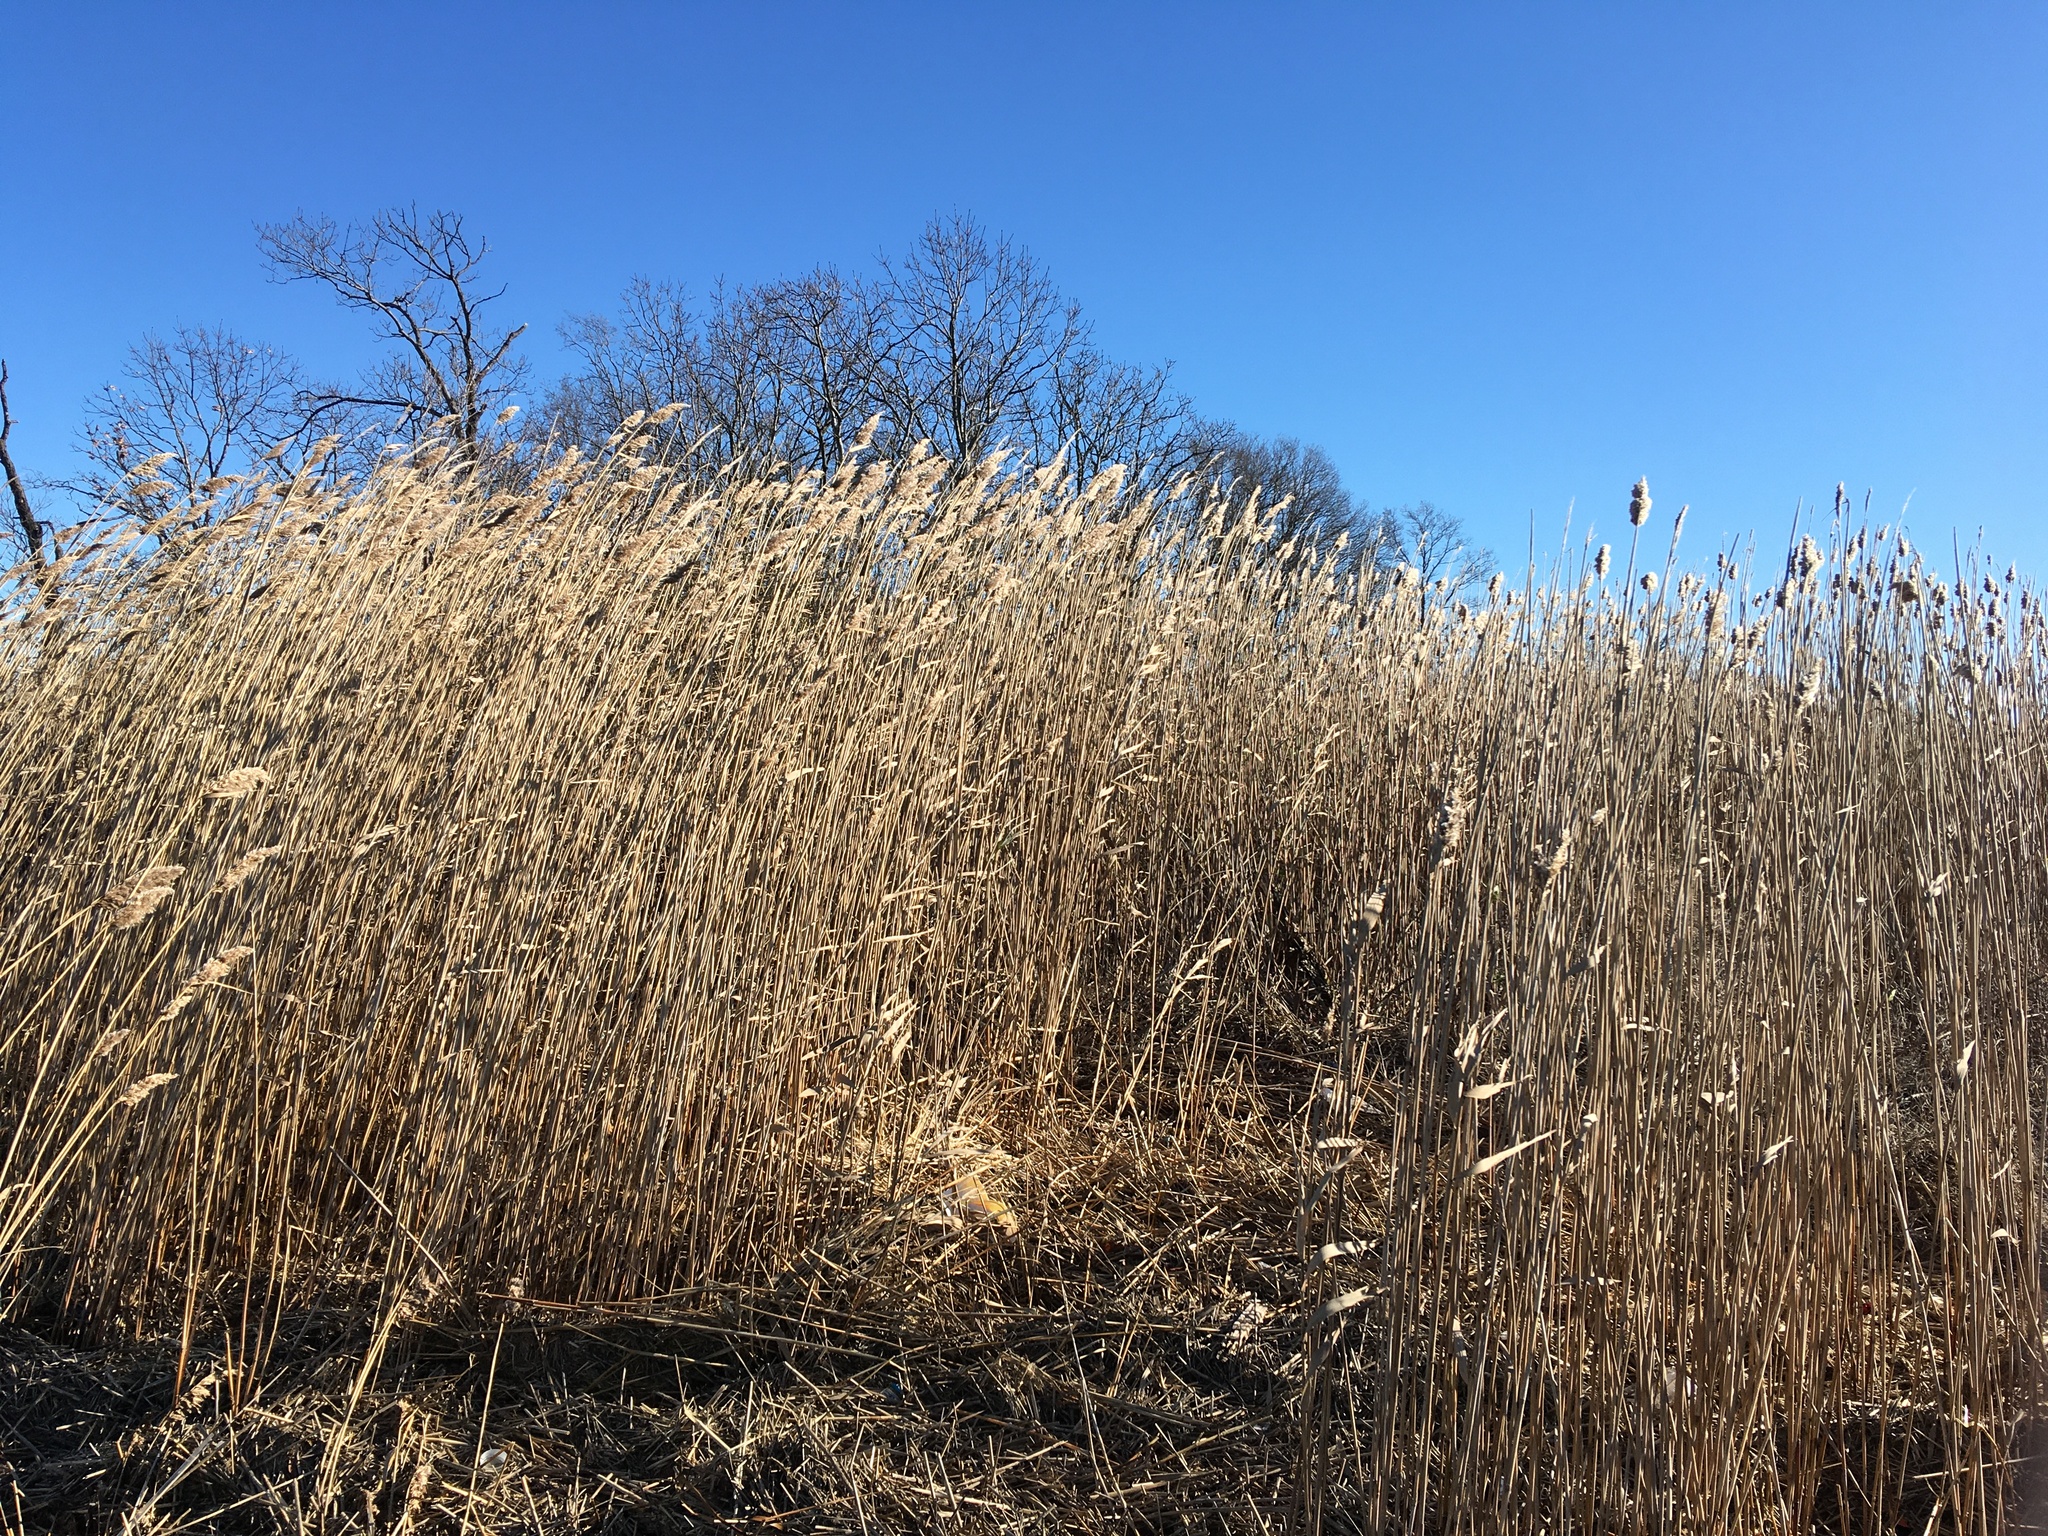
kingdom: Plantae
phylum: Tracheophyta
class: Liliopsida
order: Poales
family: Poaceae
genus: Phragmites
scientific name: Phragmites australis
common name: Common reed
